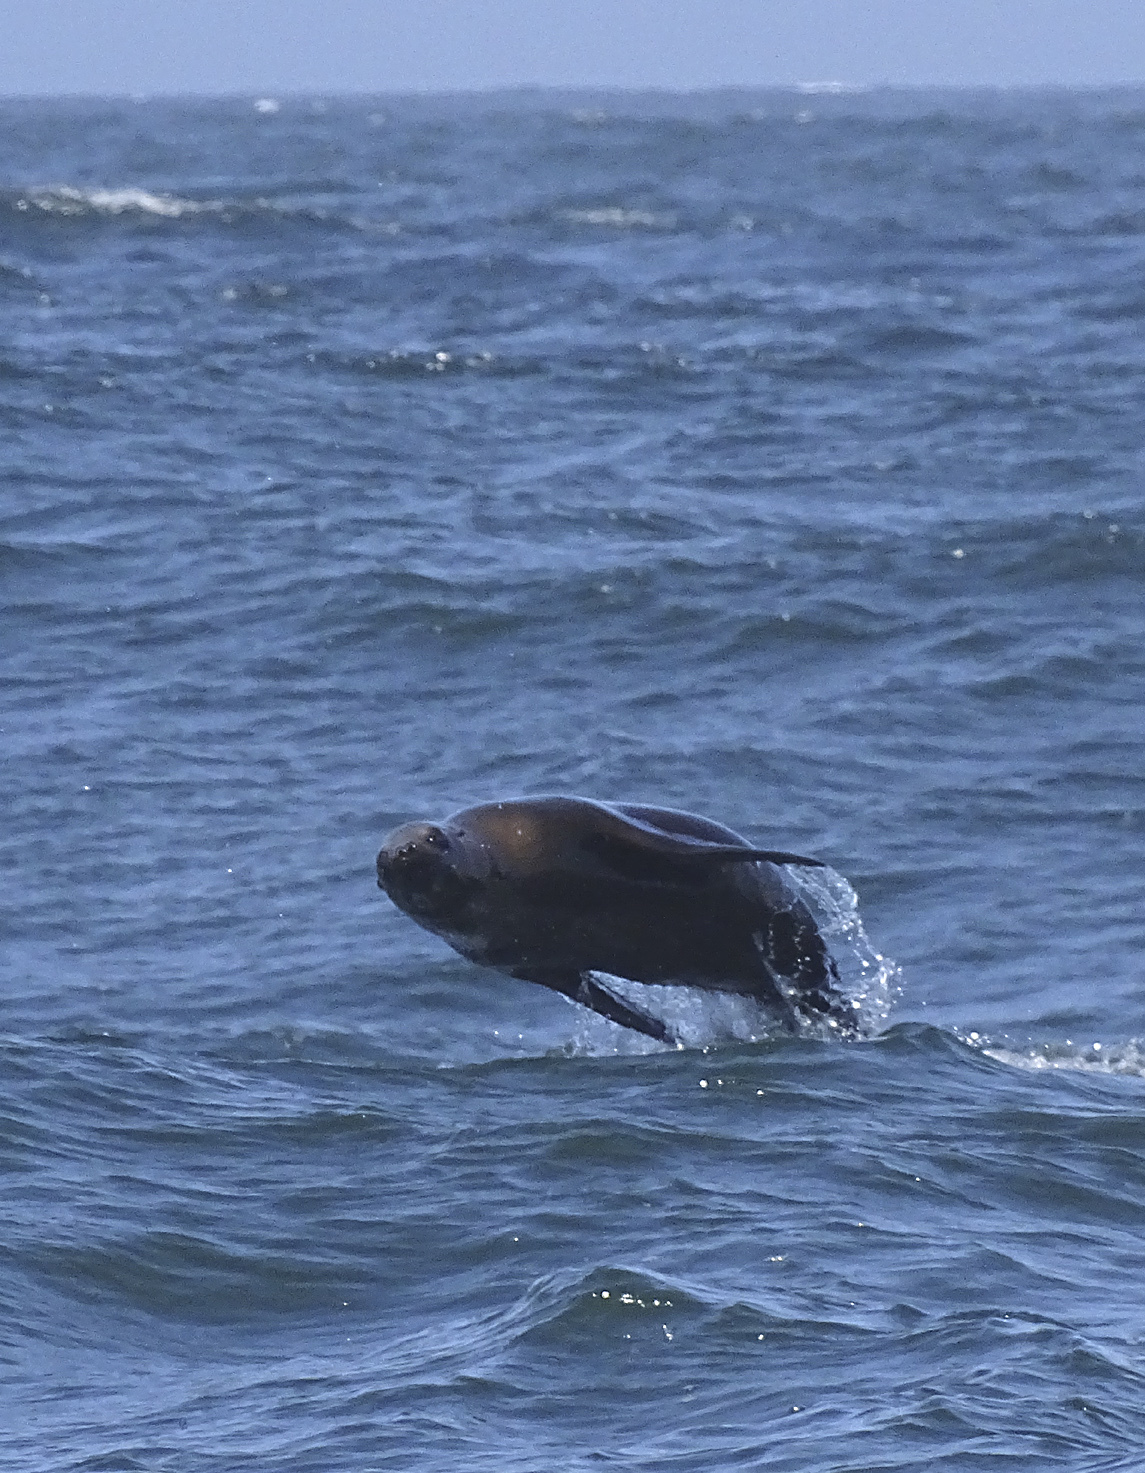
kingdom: Animalia
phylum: Chordata
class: Mammalia
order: Carnivora
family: Otariidae
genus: Zalophus
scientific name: Zalophus californianus
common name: California sea lion
